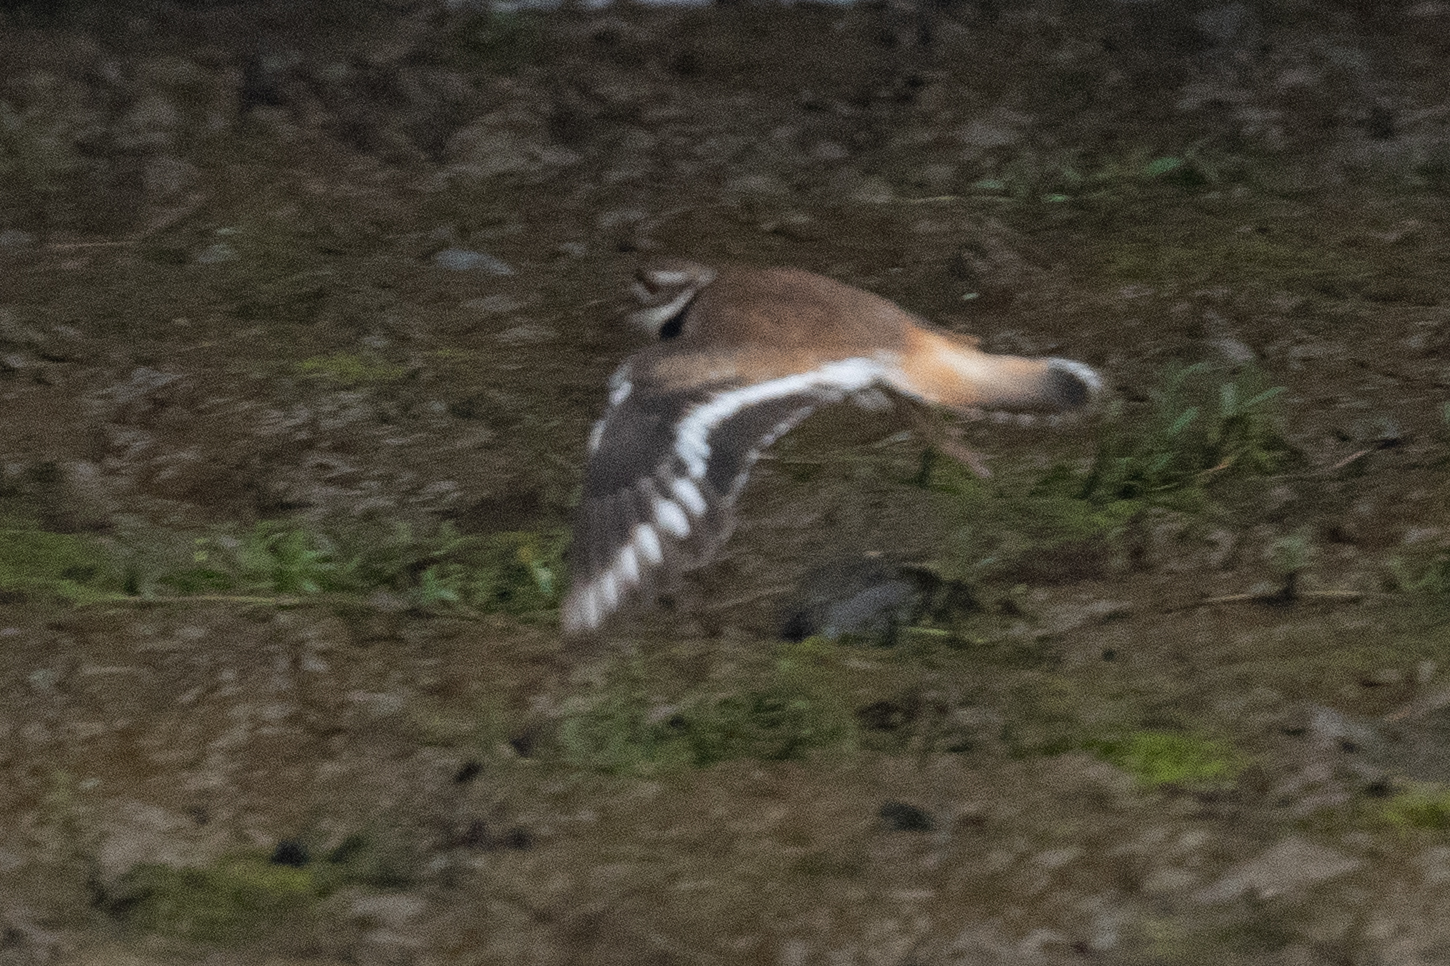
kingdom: Animalia
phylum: Chordata
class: Aves
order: Charadriiformes
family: Charadriidae
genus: Charadrius
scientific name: Charadrius vociferus
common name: Killdeer
